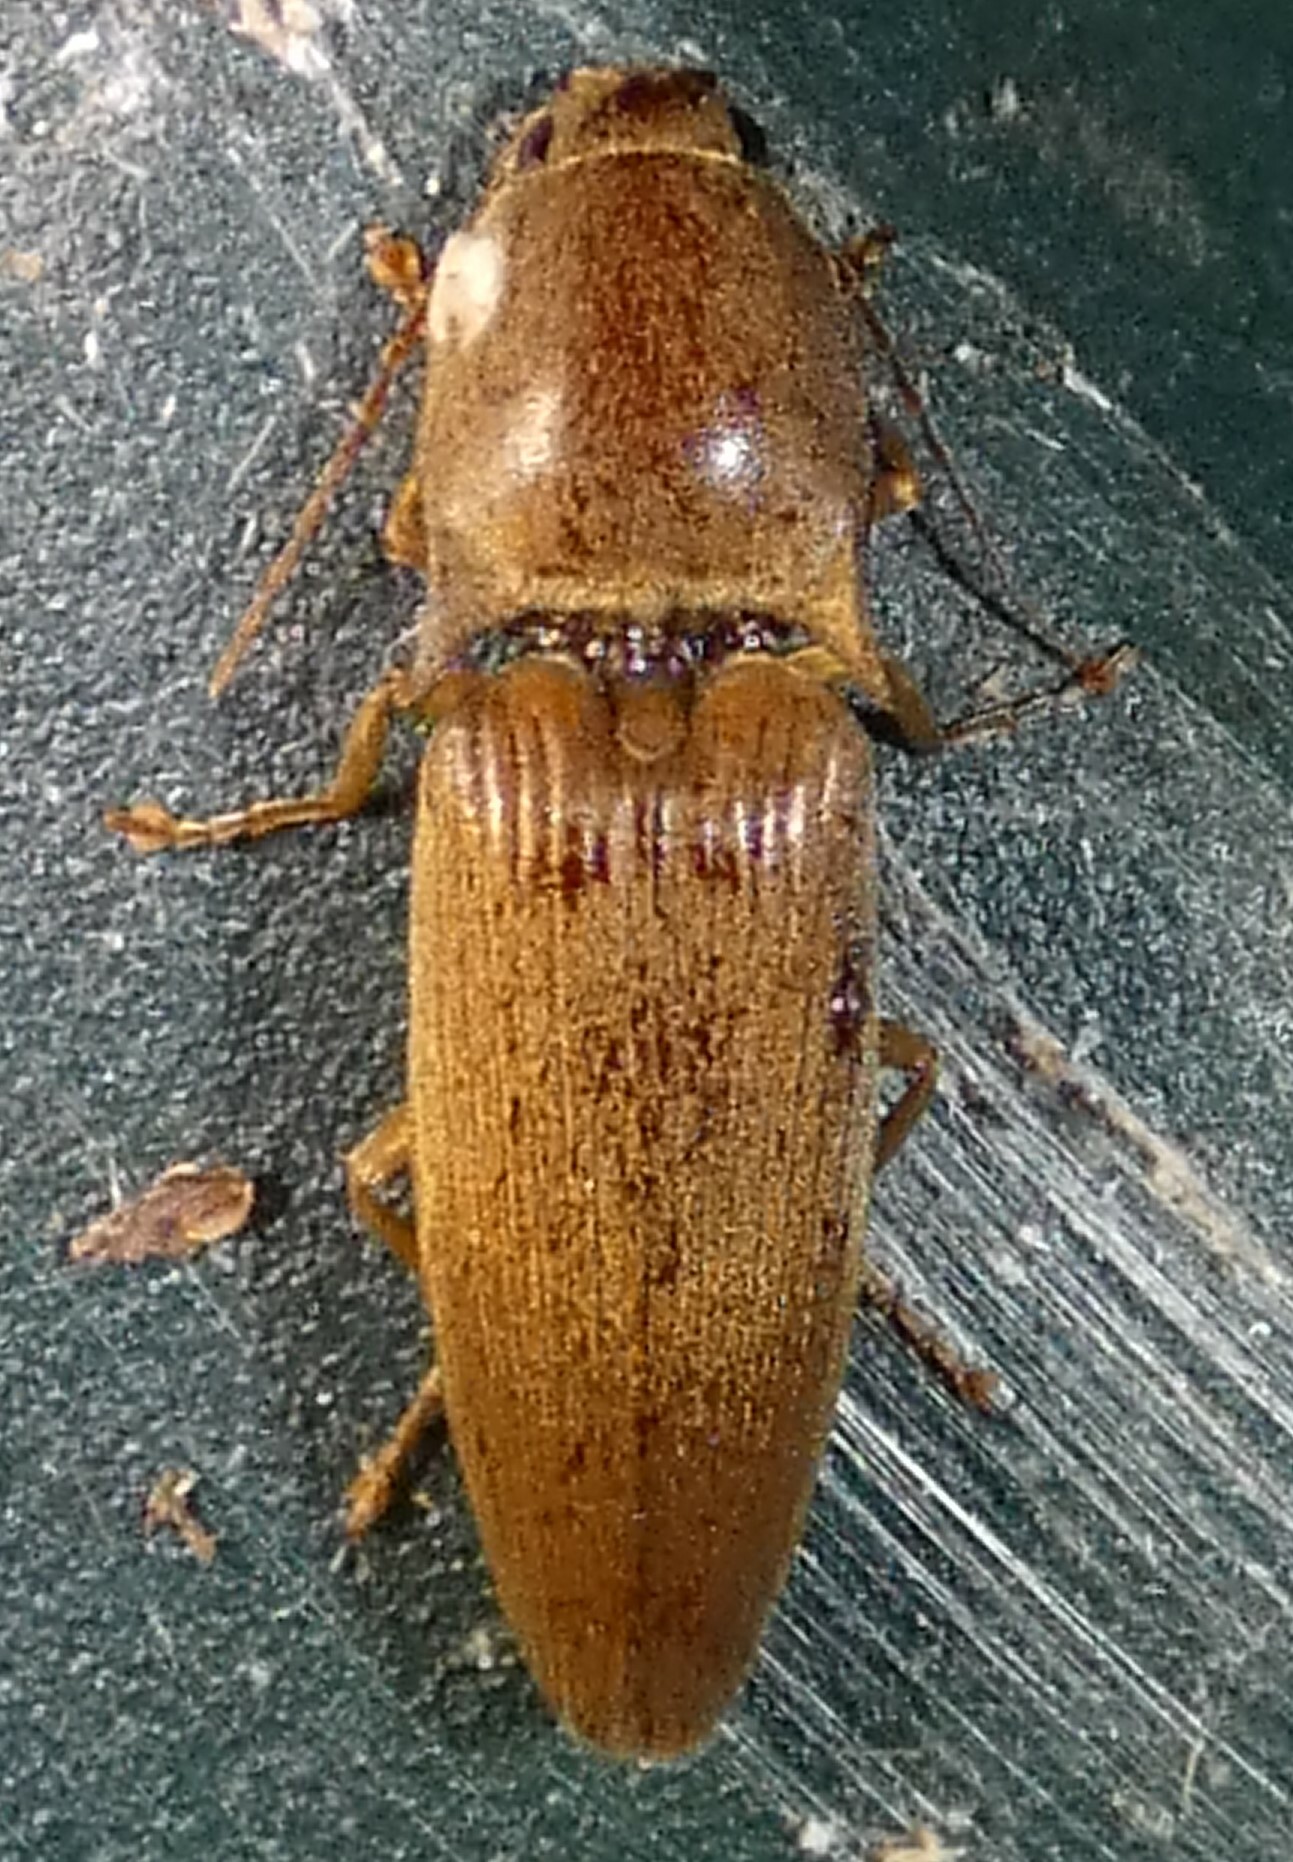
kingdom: Animalia
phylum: Arthropoda
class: Insecta
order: Coleoptera
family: Elateridae
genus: Monocrepidius
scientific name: Monocrepidius lividus
